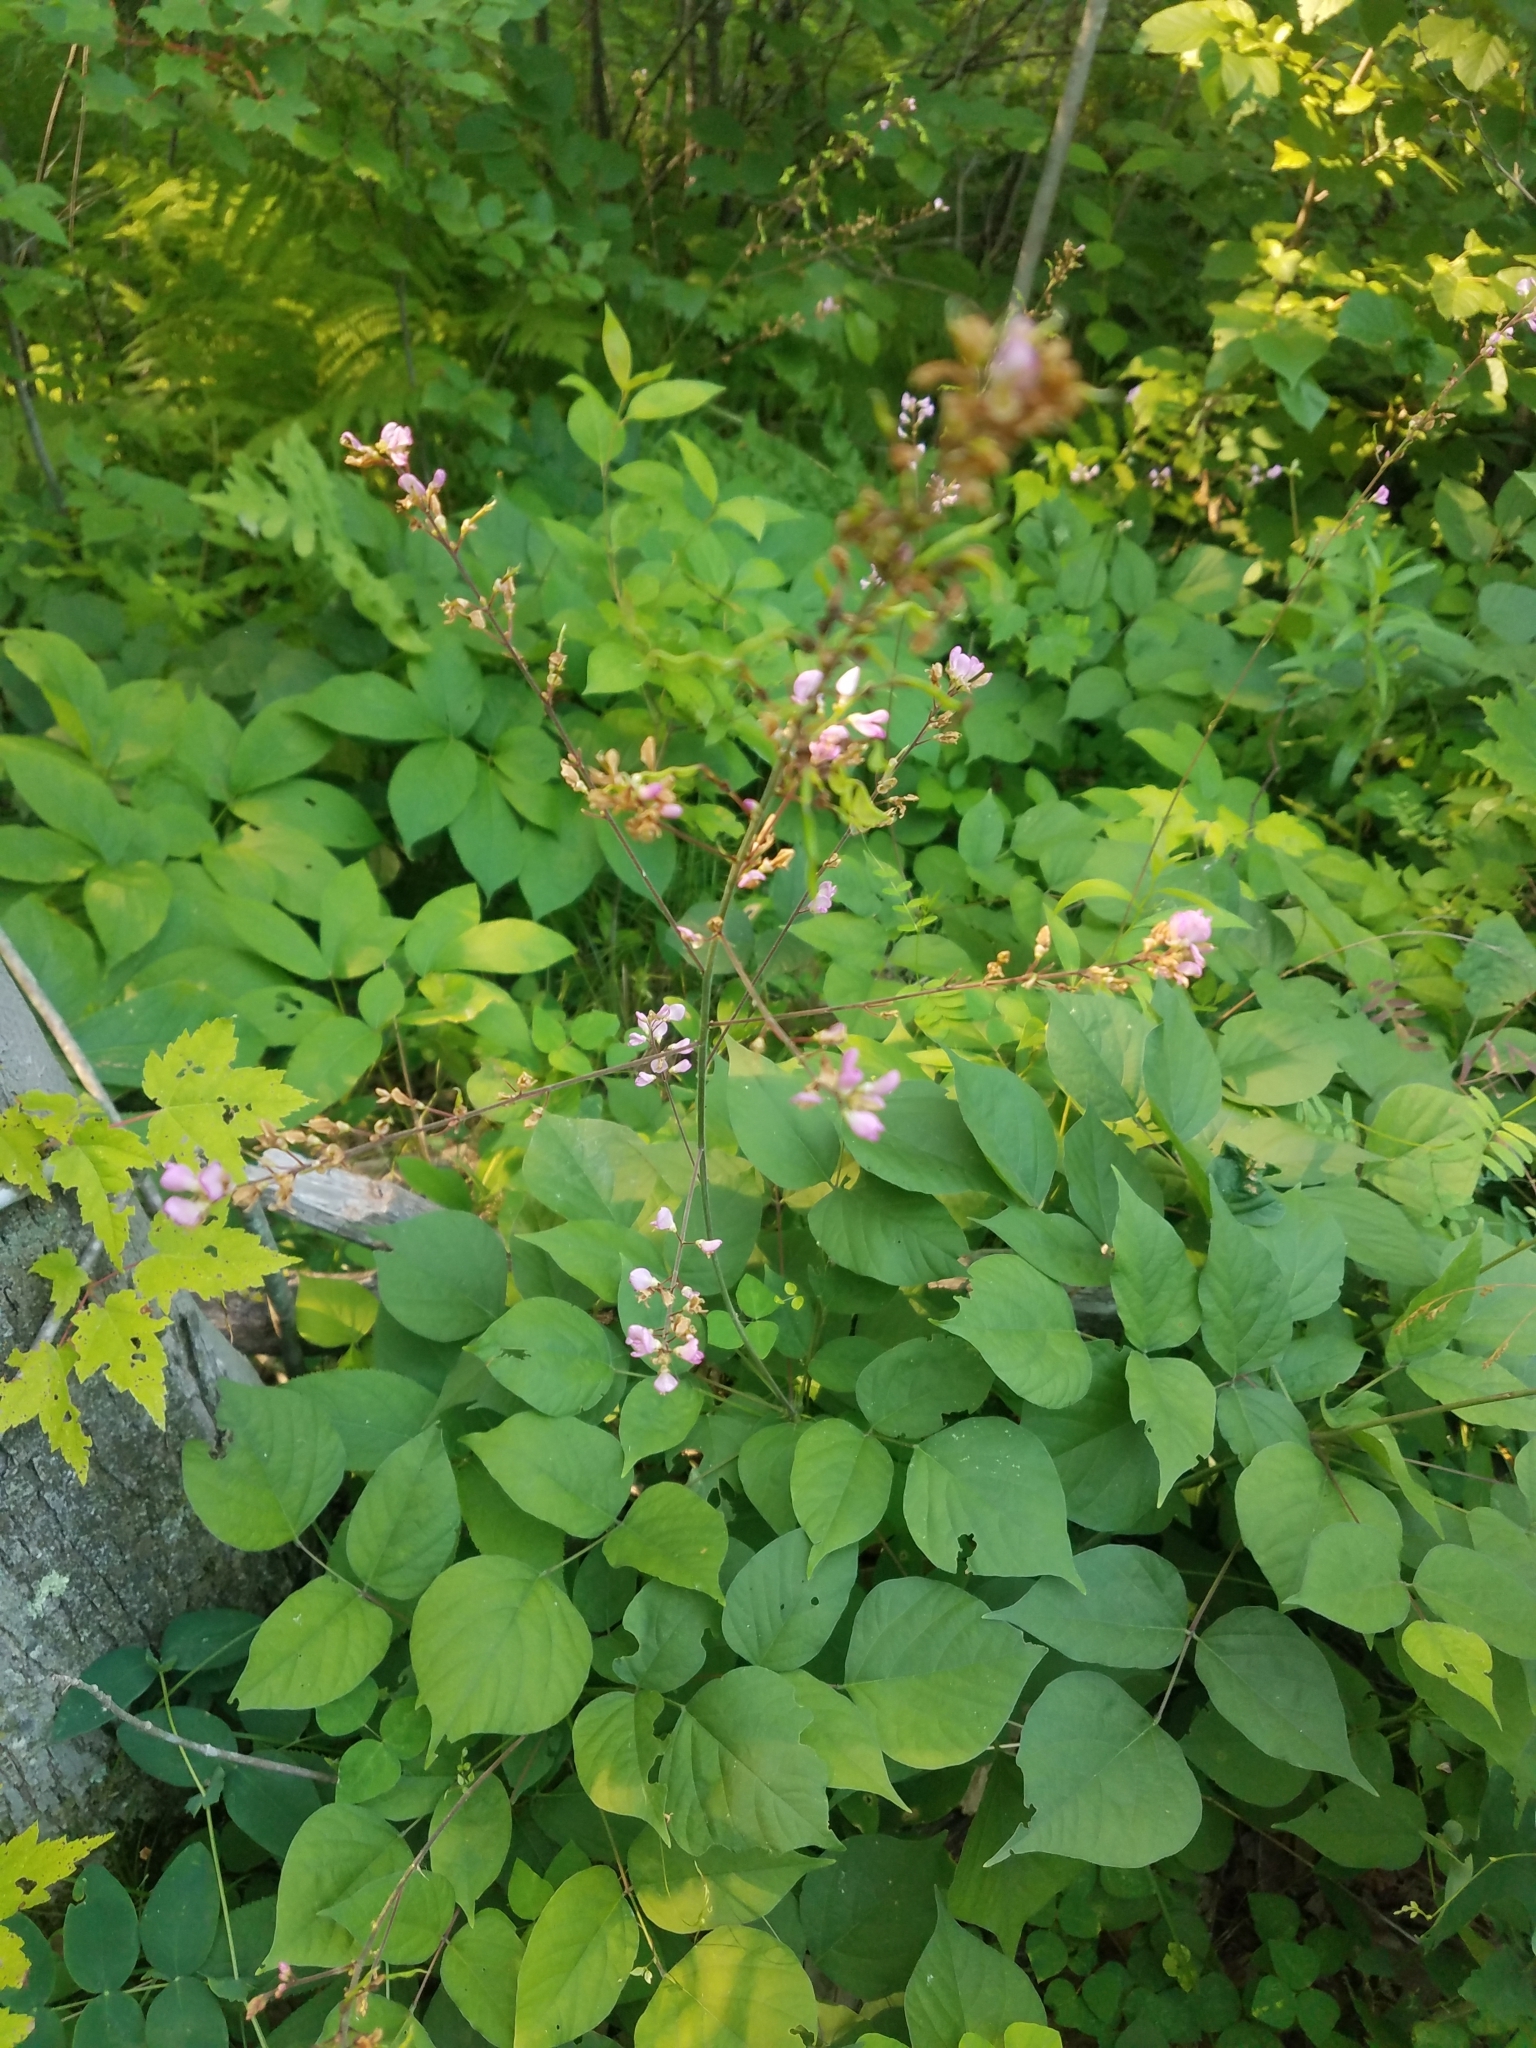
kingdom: Plantae
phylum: Tracheophyta
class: Magnoliopsida
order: Fabales
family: Fabaceae
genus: Hylodesmum
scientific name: Hylodesmum glutinosum
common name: Clustered-leaved tick-trefoil
